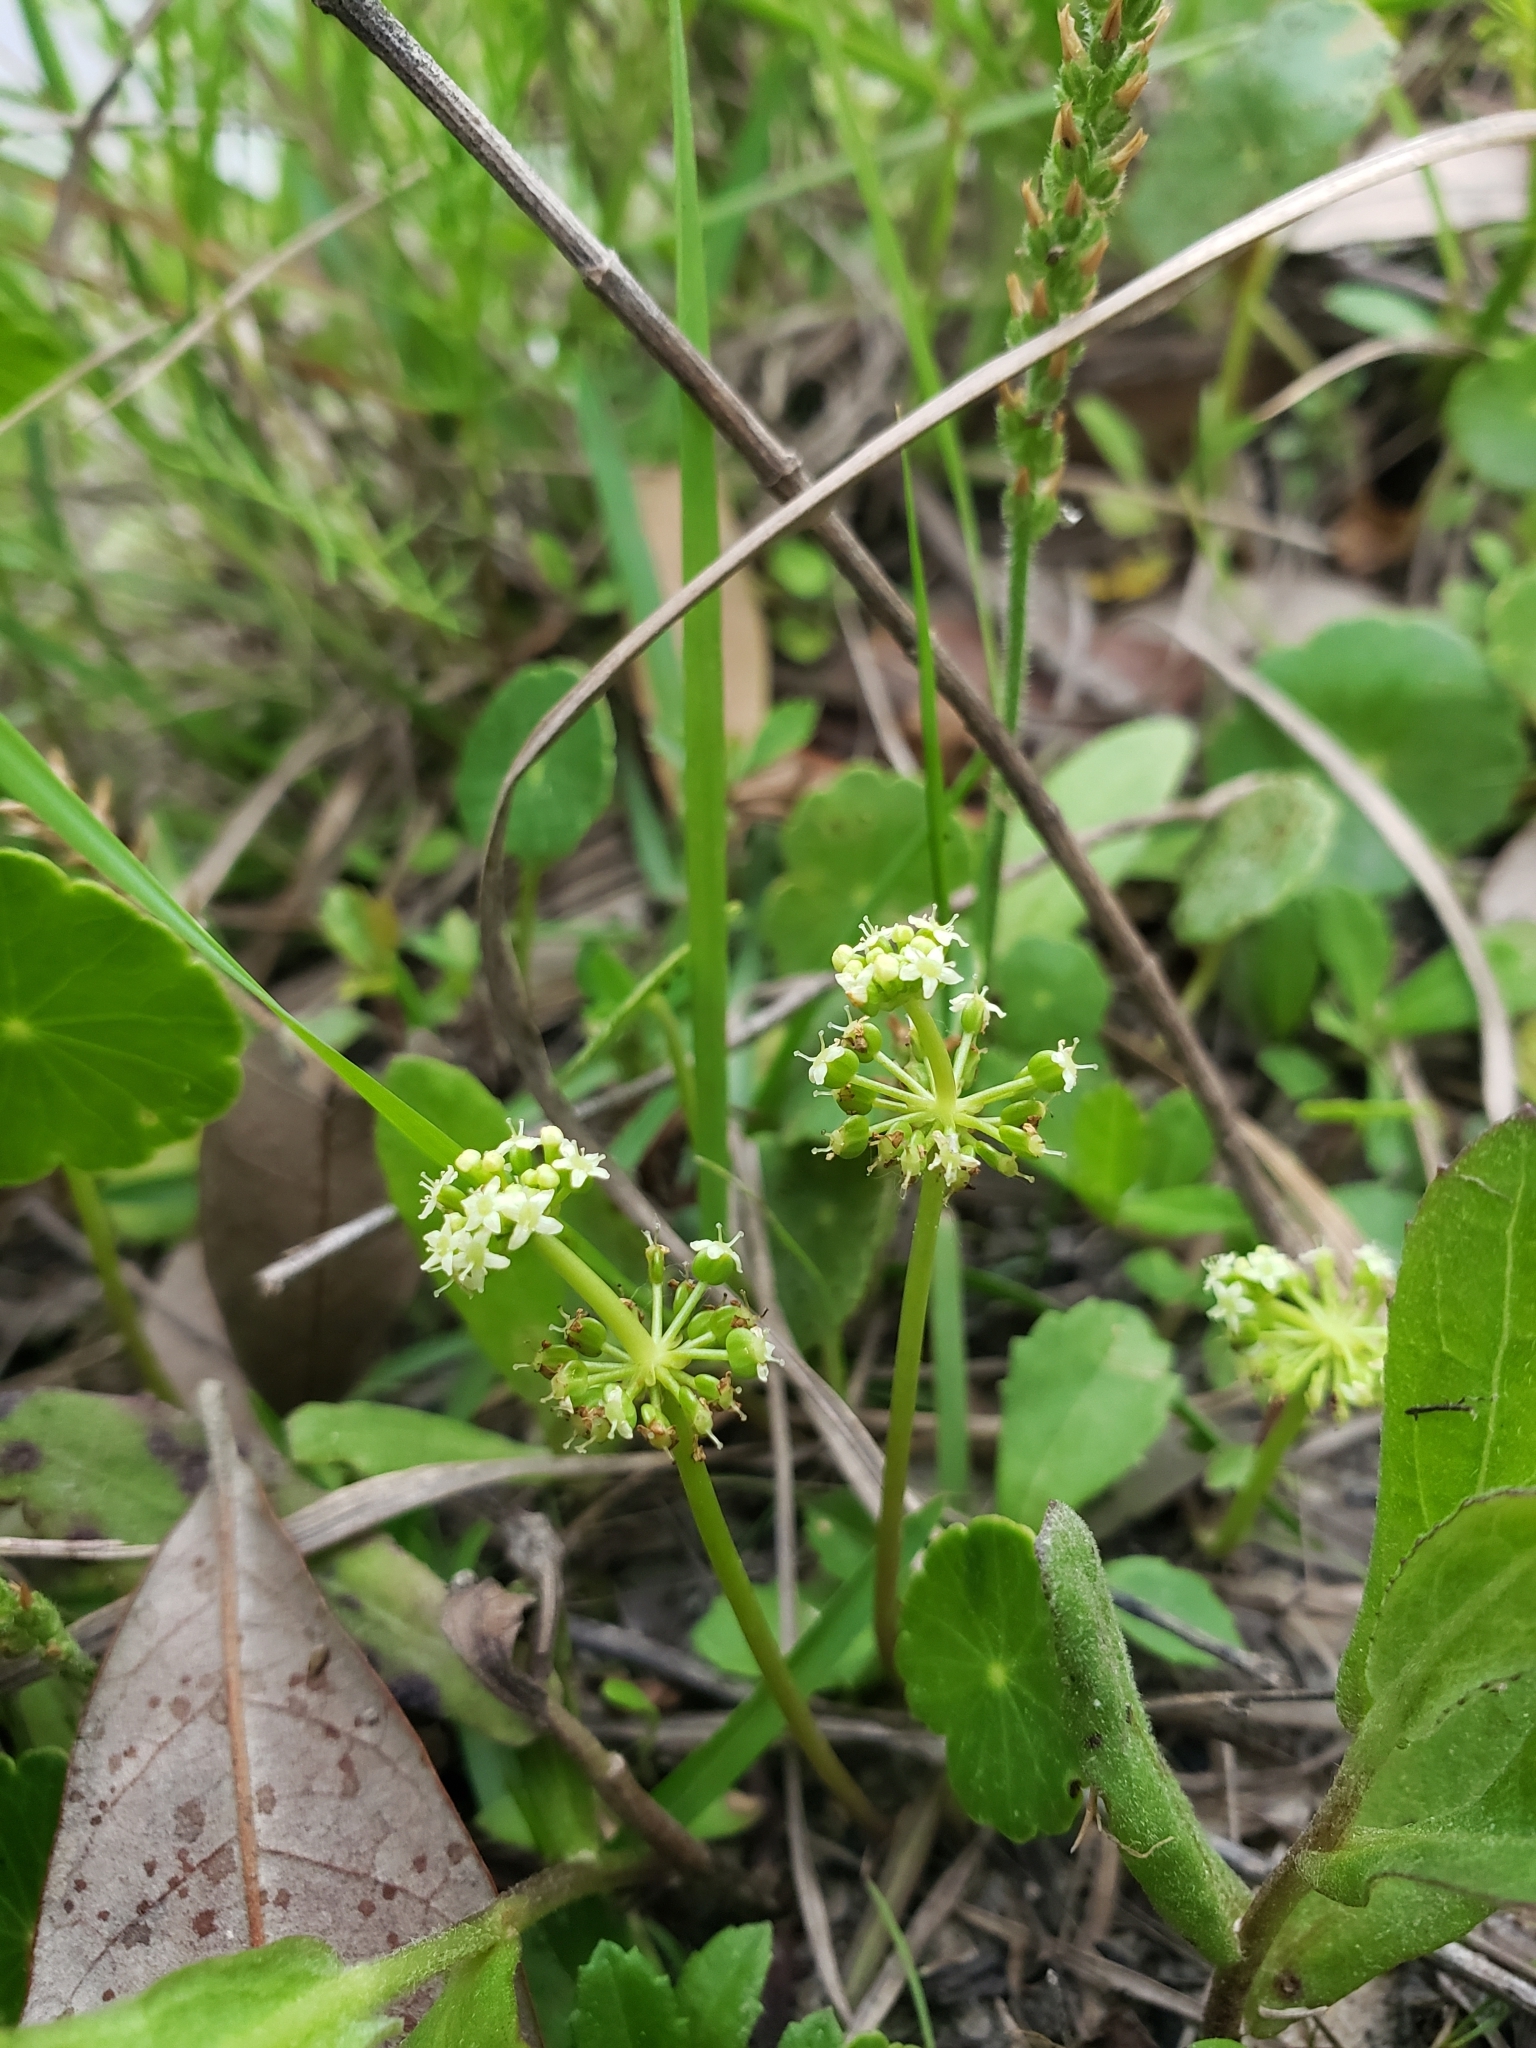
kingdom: Plantae
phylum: Tracheophyta
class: Magnoliopsida
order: Apiales
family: Araliaceae
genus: Hydrocotyle
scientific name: Hydrocotyle prolifera
